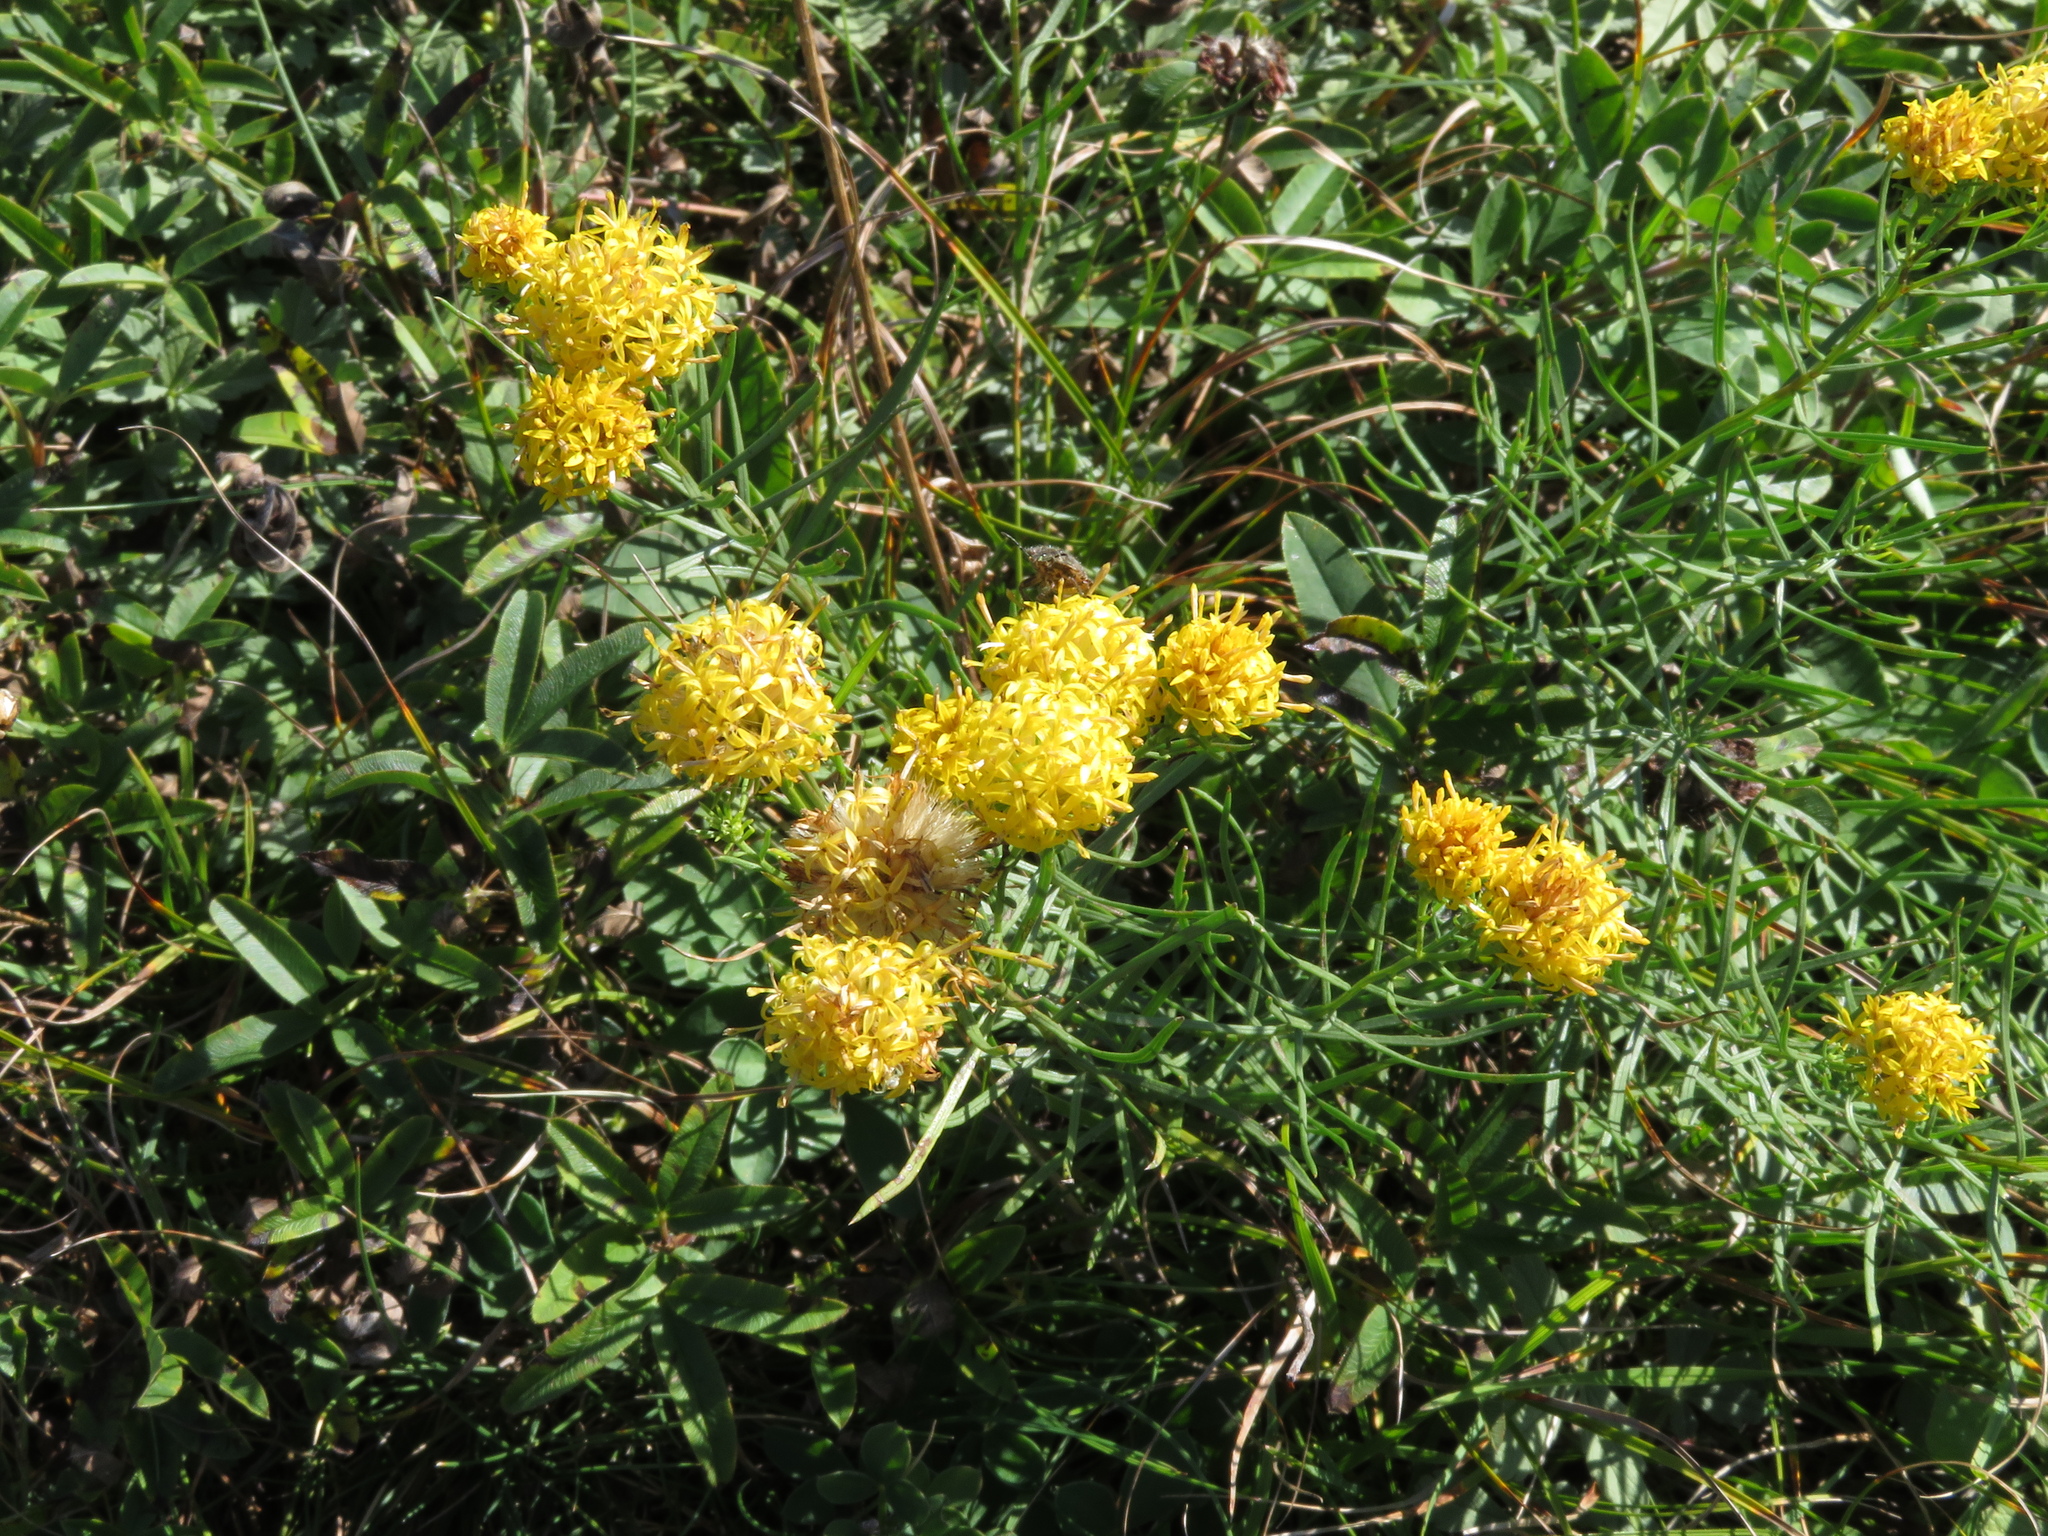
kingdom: Plantae
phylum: Tracheophyta
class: Magnoliopsida
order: Asterales
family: Asteraceae
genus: Galatella
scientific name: Galatella linosyris
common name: Goldilocks aster
